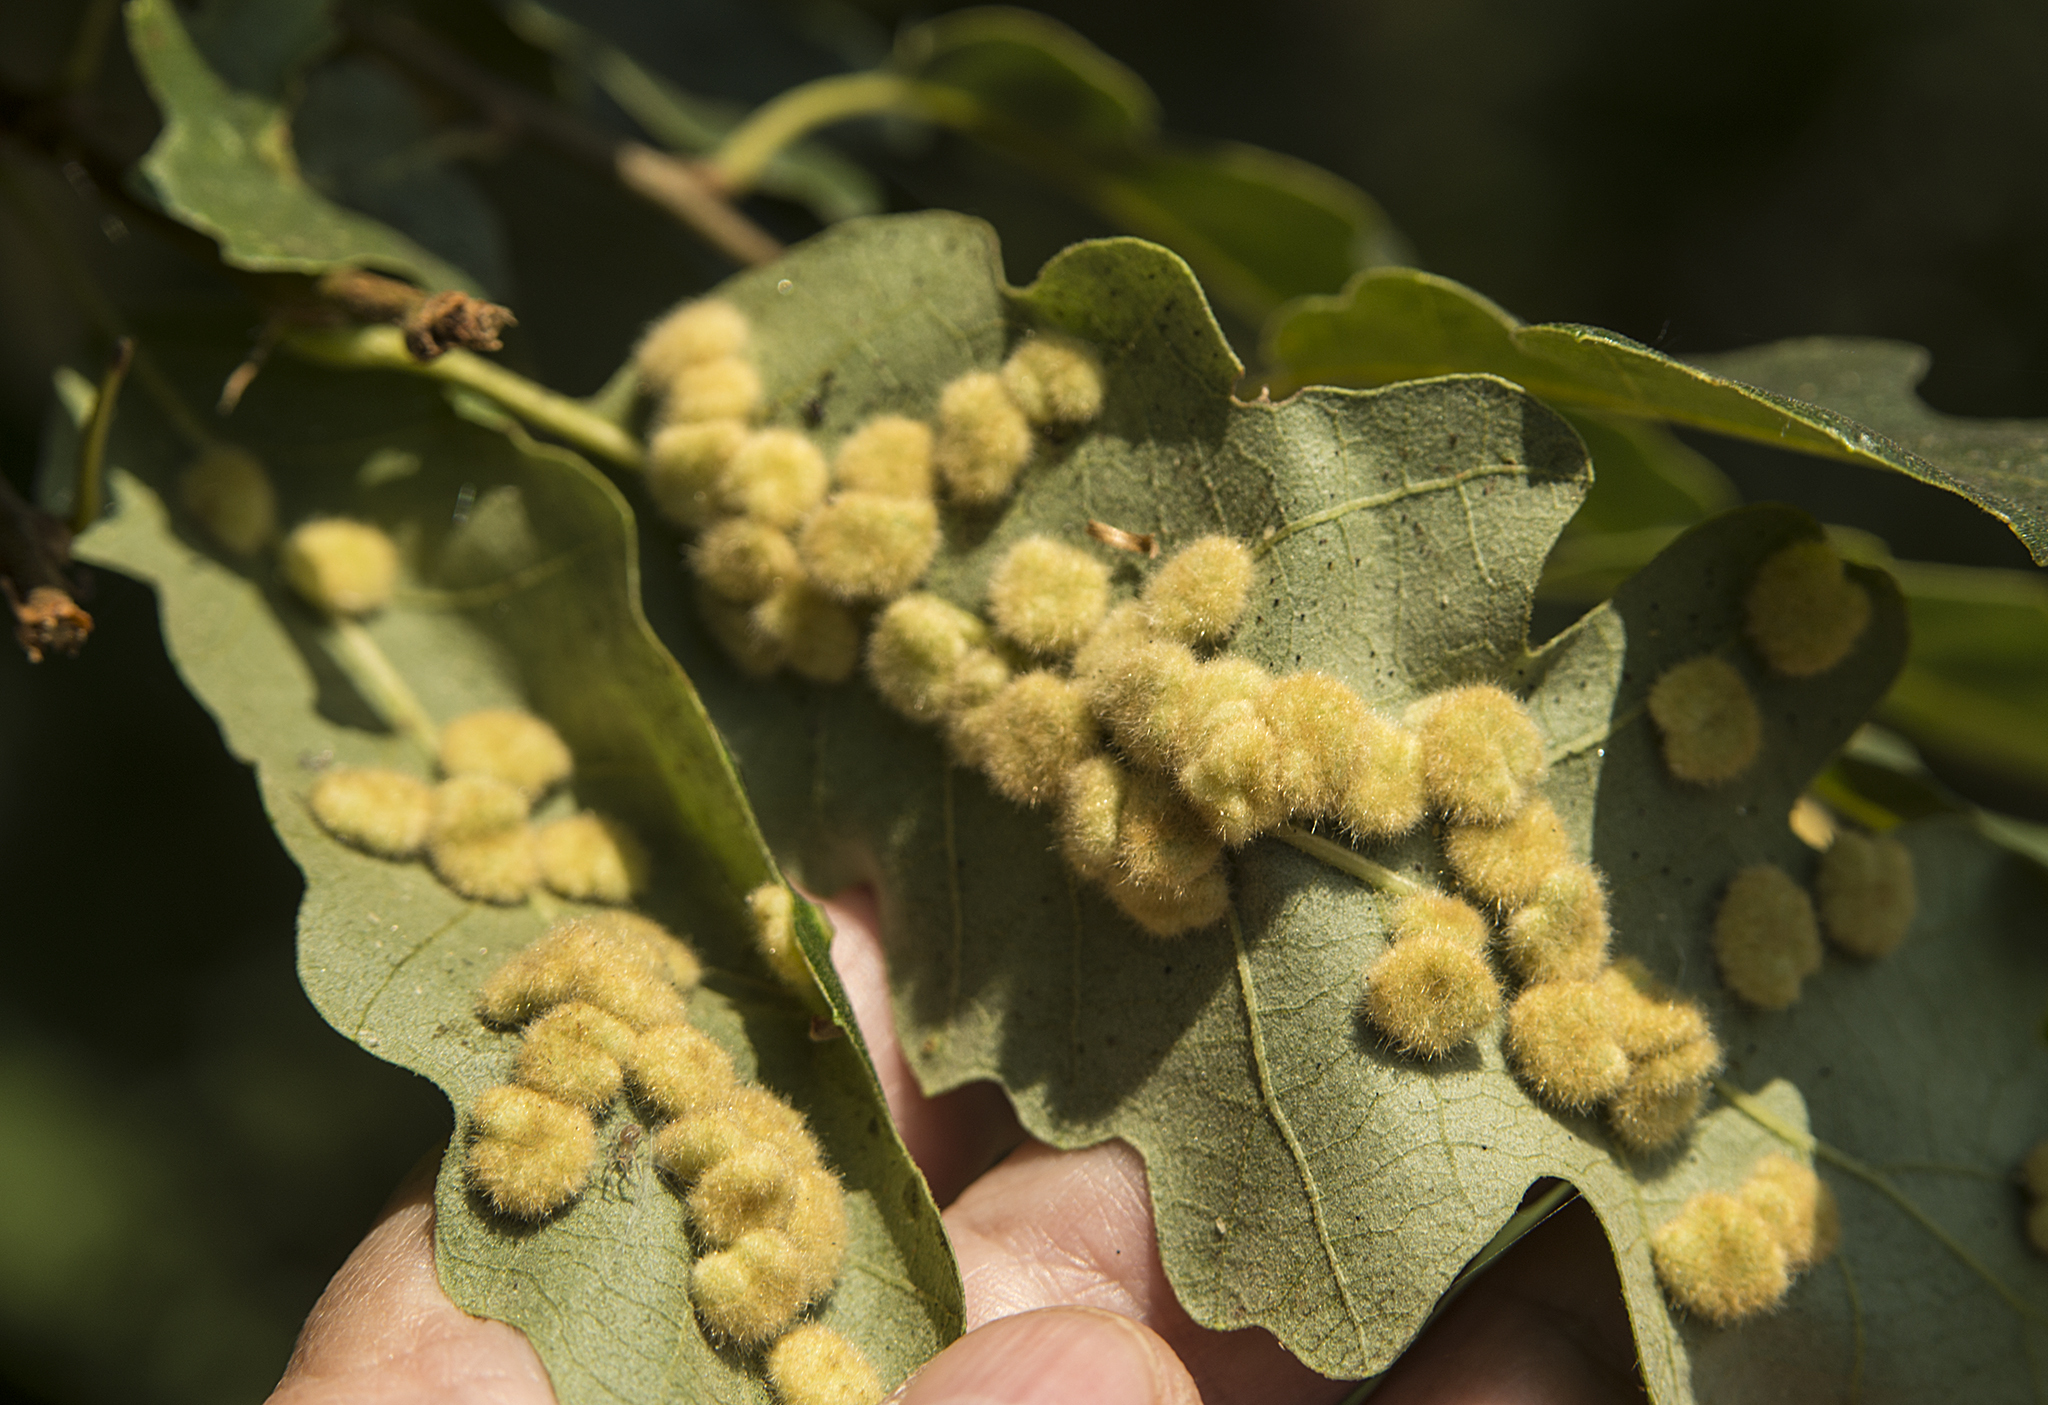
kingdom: Animalia
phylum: Arthropoda
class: Insecta
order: Diptera
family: Cecidomyiidae
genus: Dryomyia
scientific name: Dryomyia circinans
